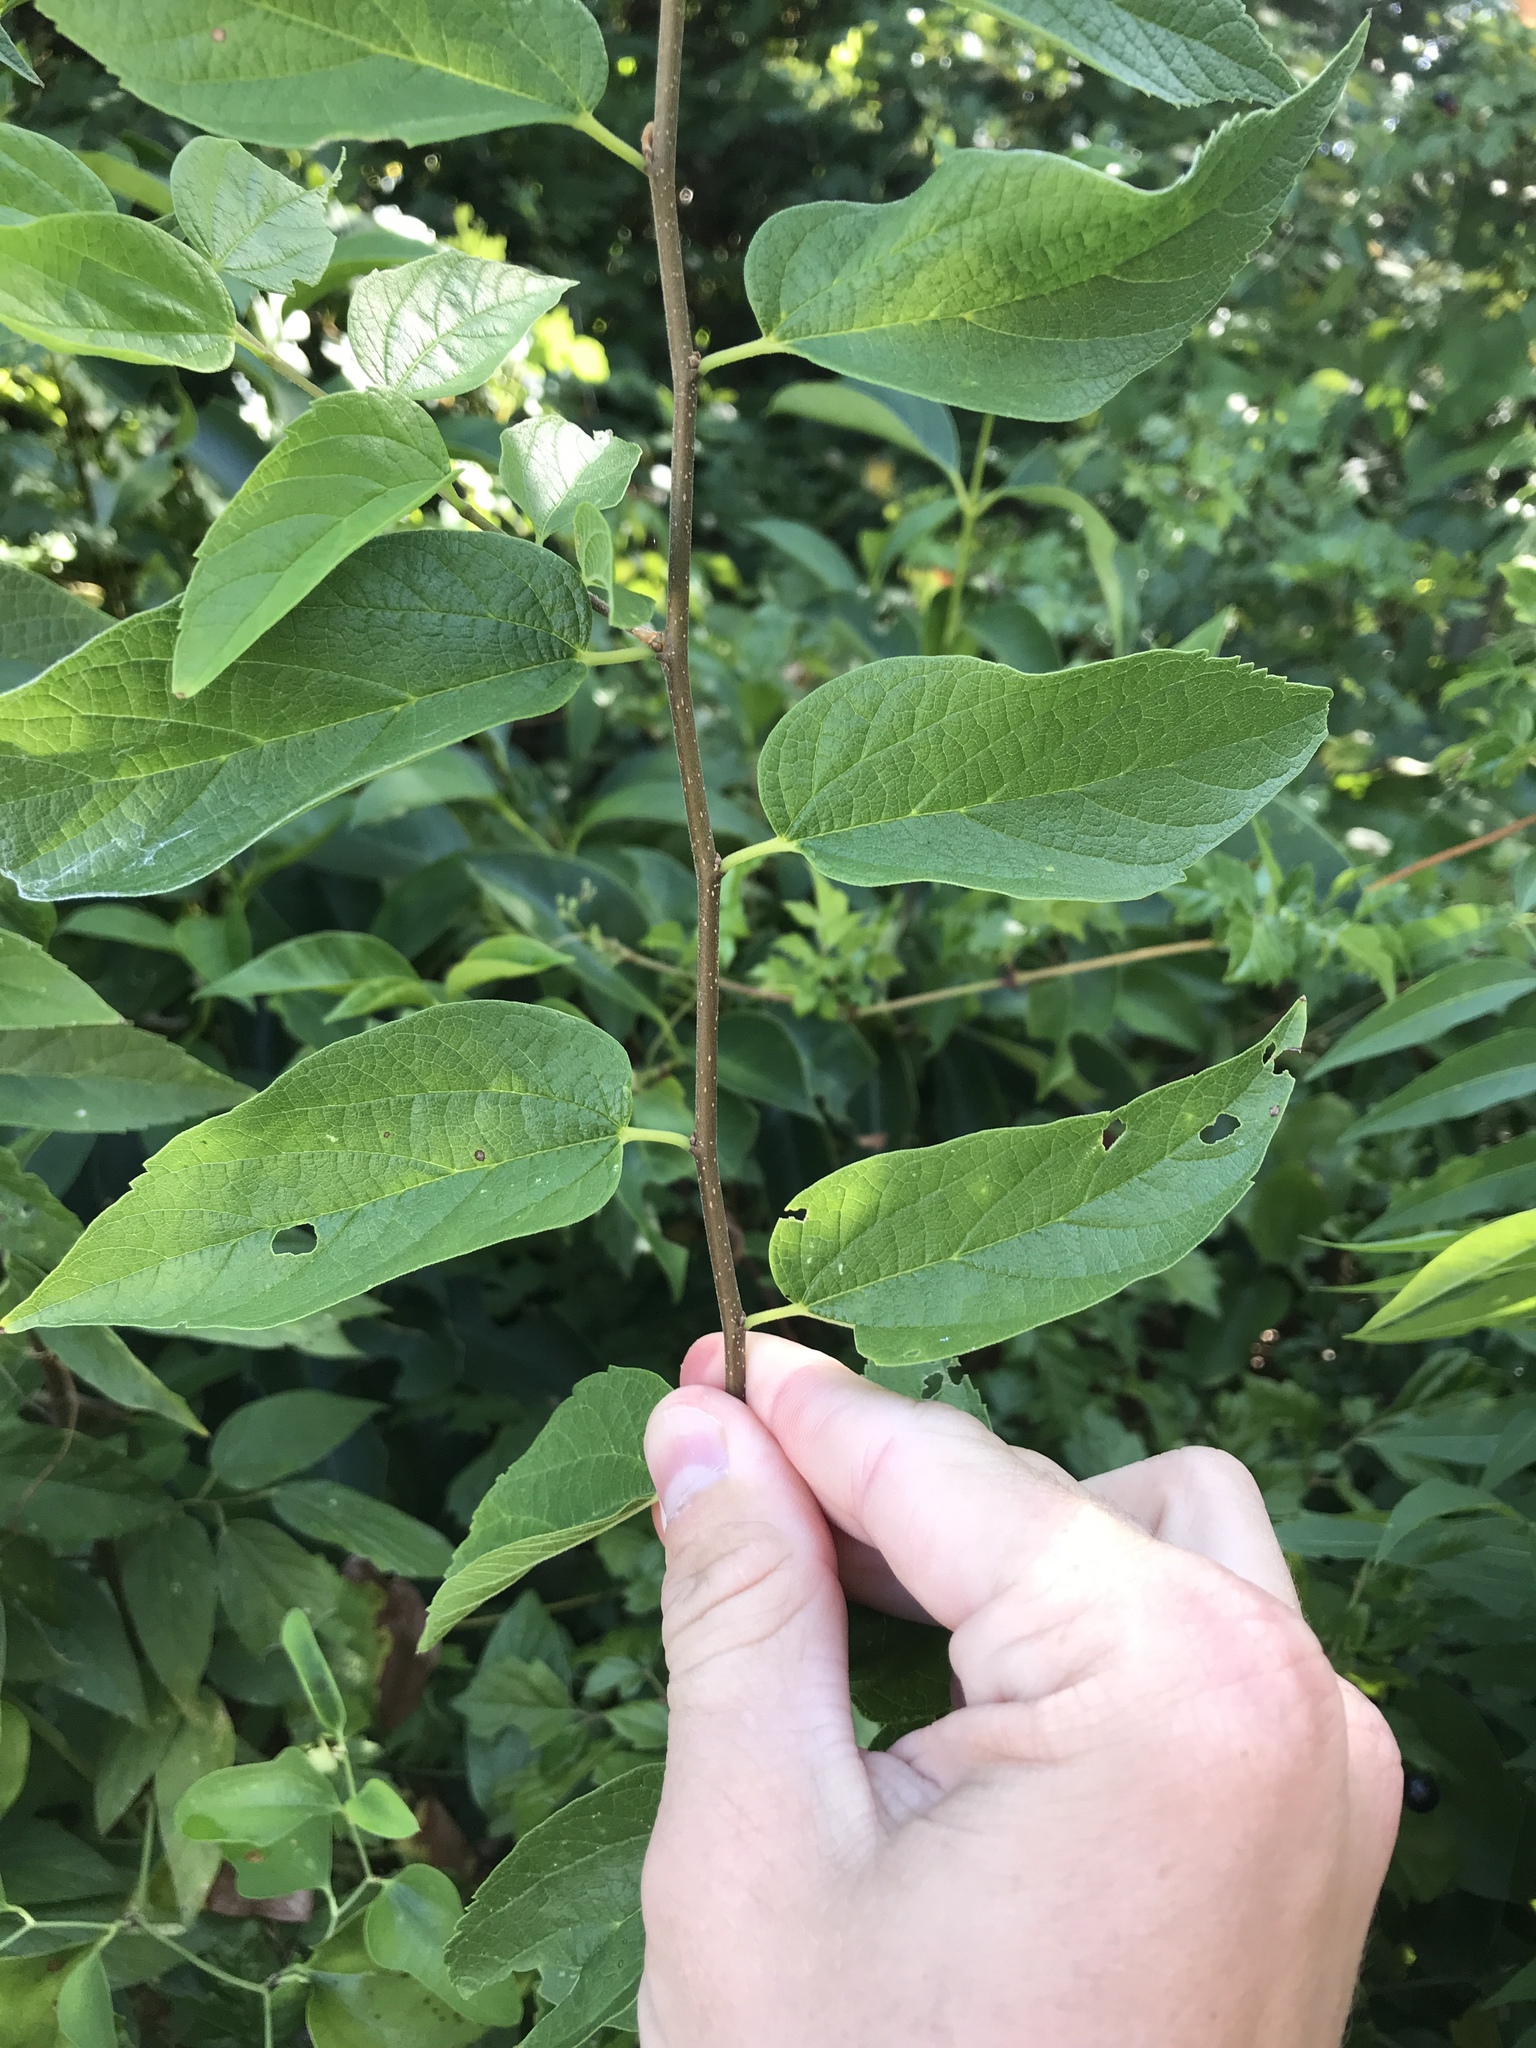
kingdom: Plantae
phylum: Tracheophyta
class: Magnoliopsida
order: Rosales
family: Cannabaceae
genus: Celtis
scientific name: Celtis laevigata
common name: Sugarberry
